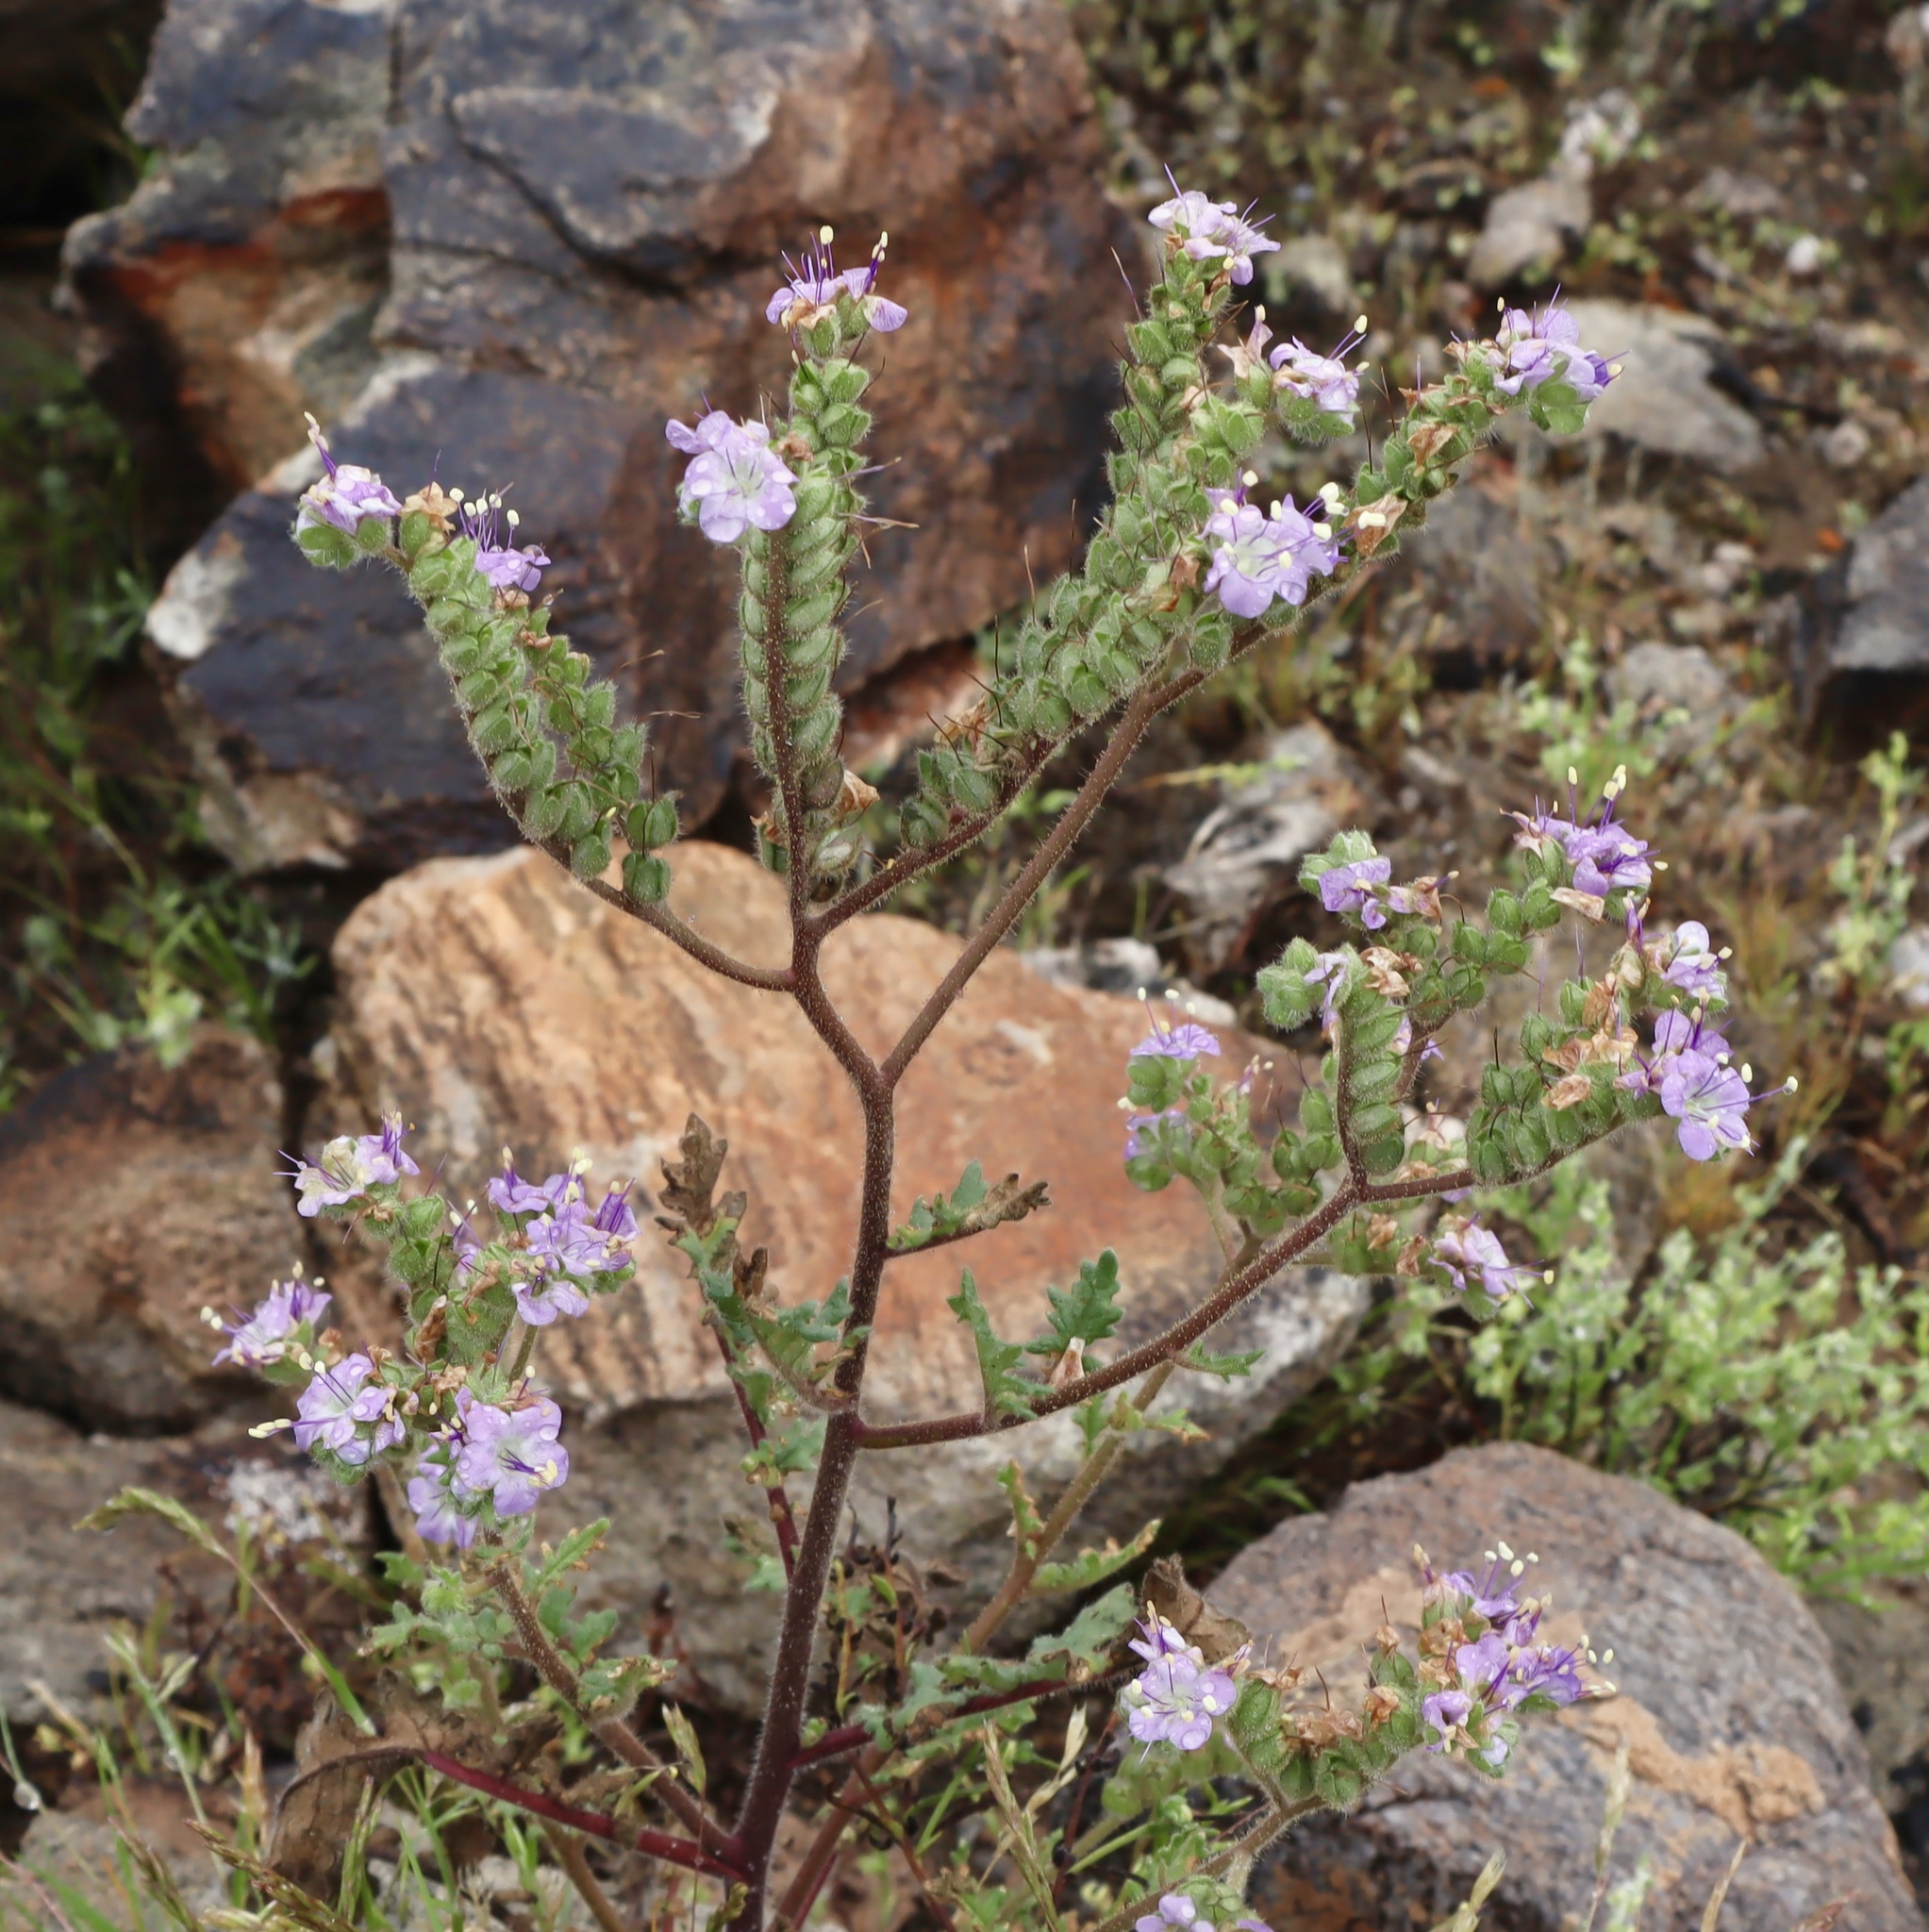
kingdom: Plantae
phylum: Tracheophyta
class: Magnoliopsida
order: Boraginales
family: Hydrophyllaceae
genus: Phacelia
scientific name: Phacelia crenulata
